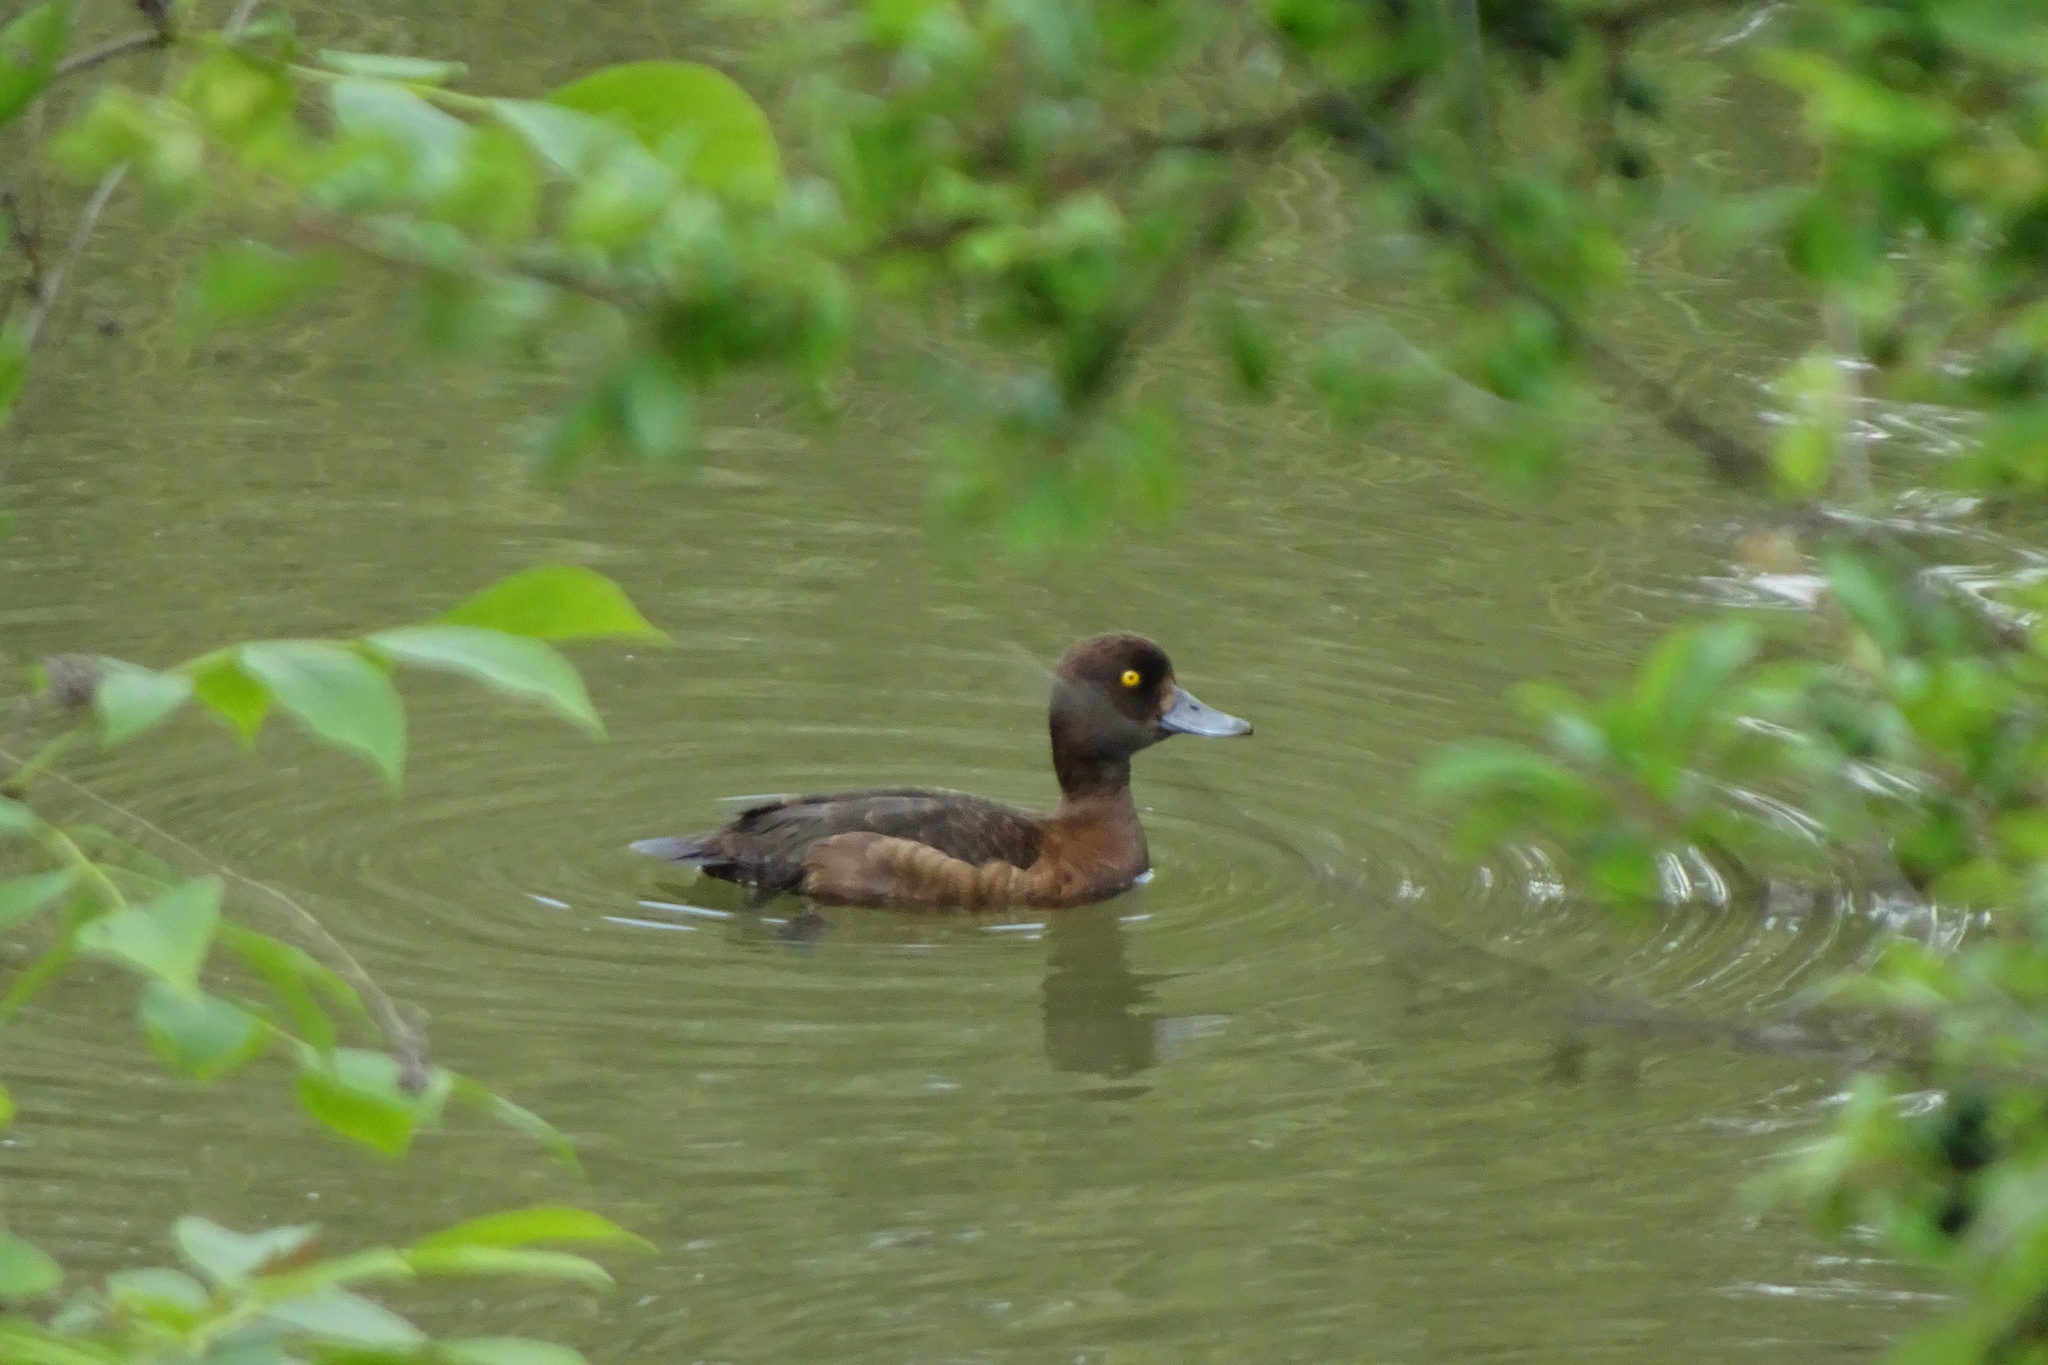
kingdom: Animalia
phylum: Chordata
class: Aves
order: Anseriformes
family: Anatidae
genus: Aythya
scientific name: Aythya fuligula
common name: Tufted duck
